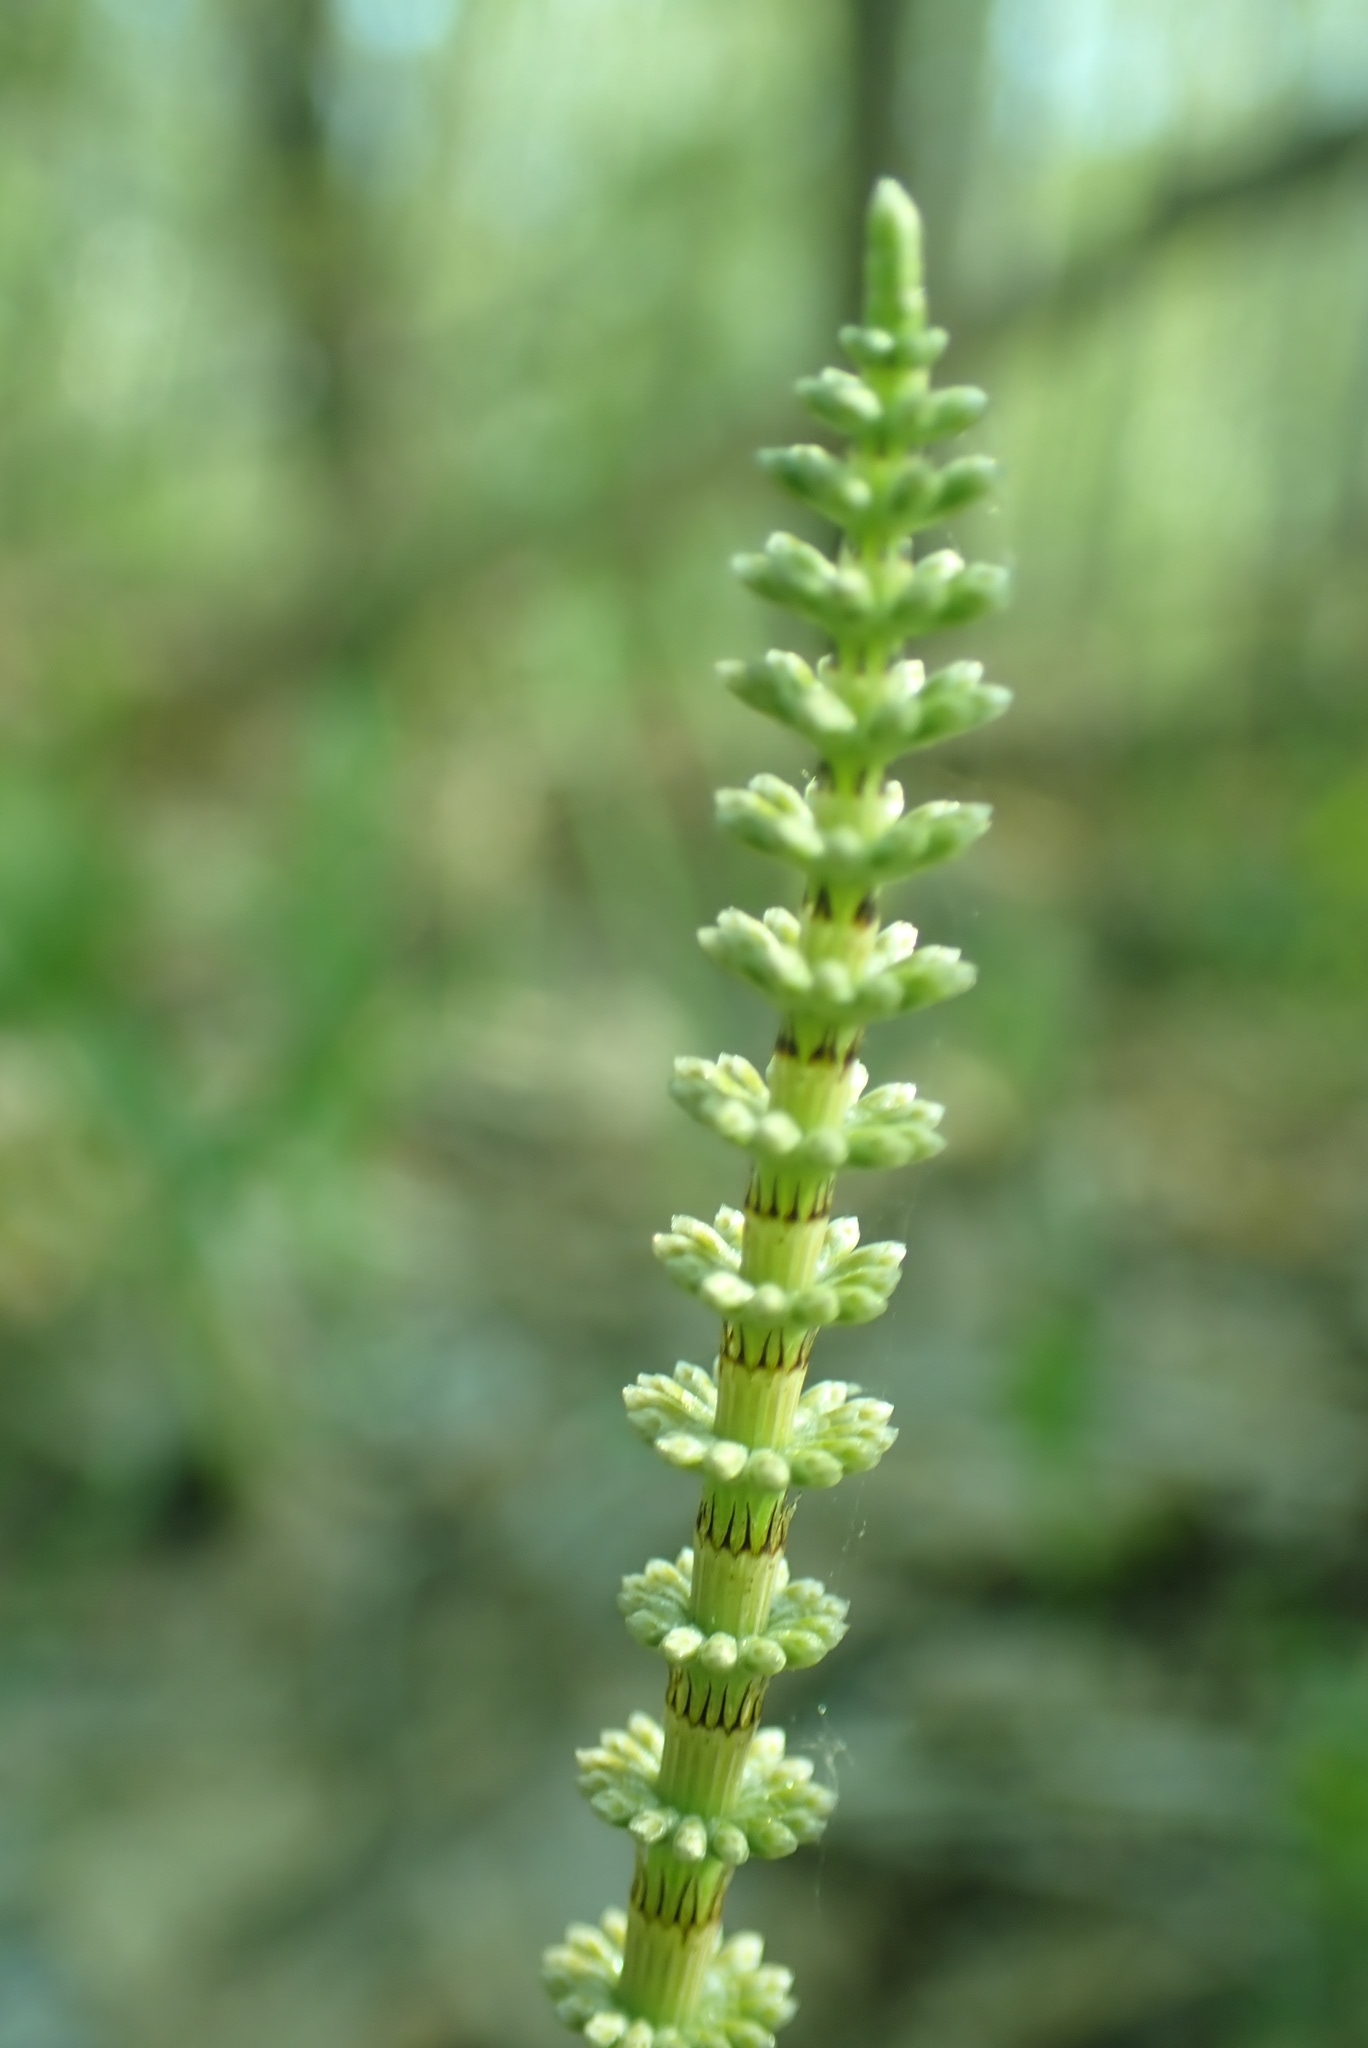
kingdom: Plantae
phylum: Tracheophyta
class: Polypodiopsida
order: Equisetales
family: Equisetaceae
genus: Equisetum
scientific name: Equisetum pratense
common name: Meadow horsetail
